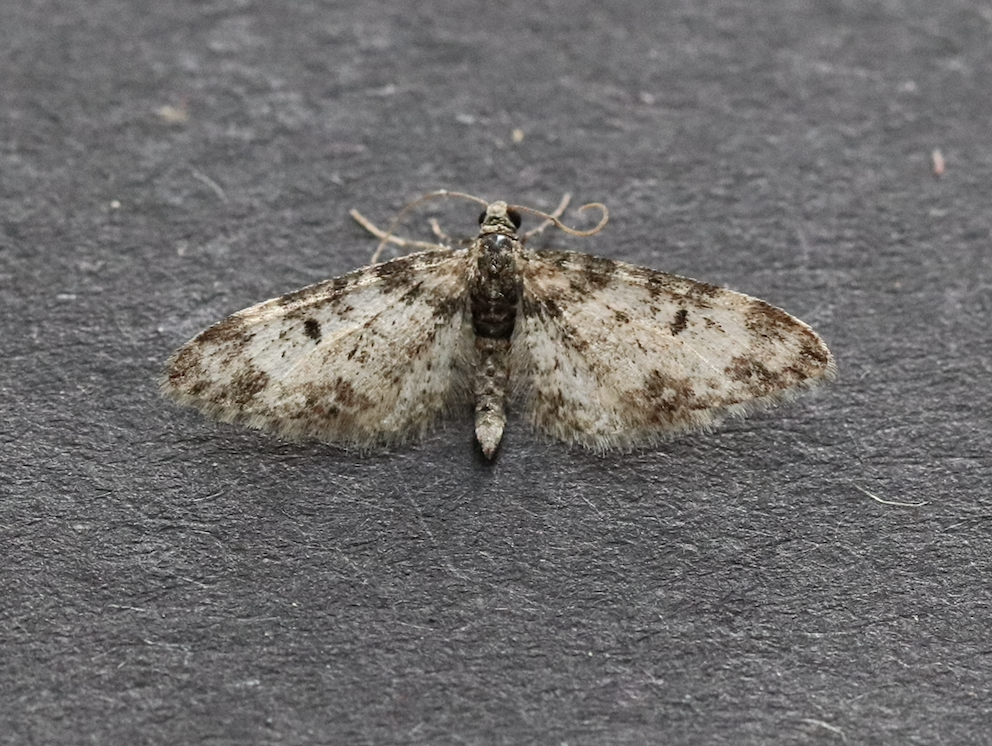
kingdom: Animalia
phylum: Arthropoda
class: Insecta
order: Lepidoptera
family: Geometridae
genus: Eupithecia
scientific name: Eupithecia irriguata
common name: Marbled pug
